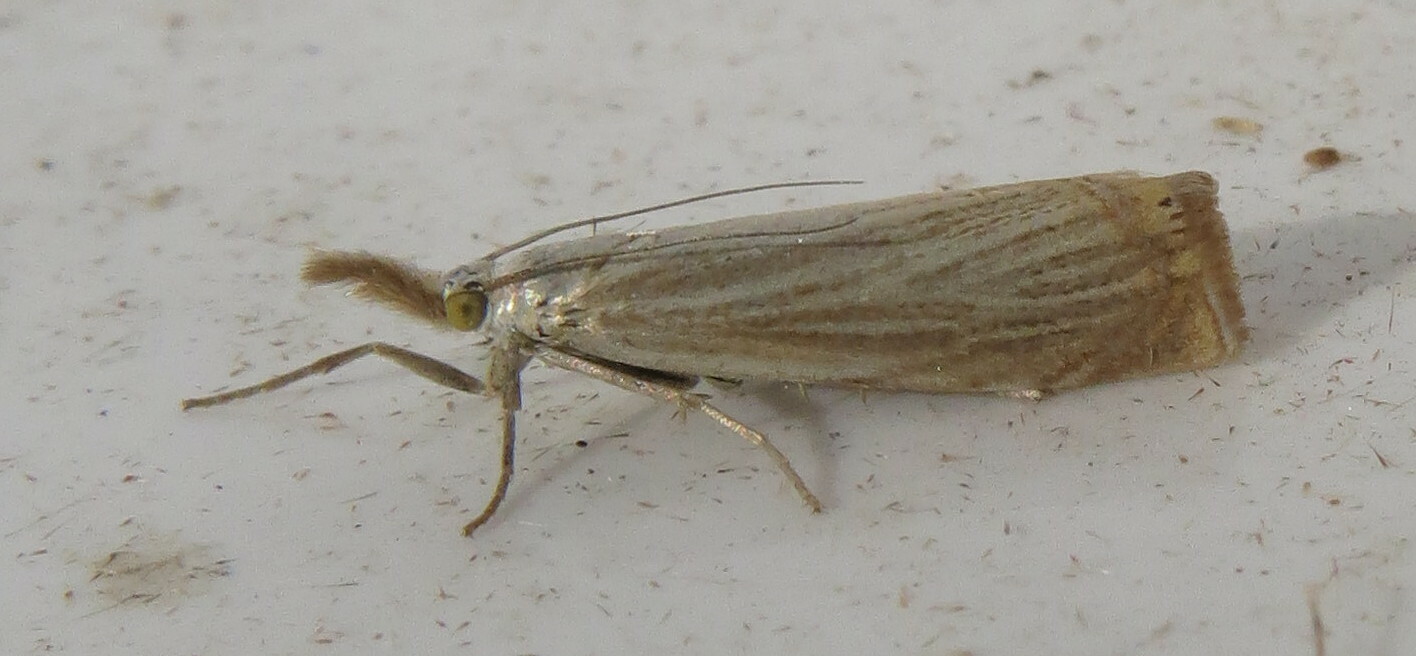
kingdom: Animalia
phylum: Arthropoda
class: Insecta
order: Lepidoptera
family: Crambidae
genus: Chrysoteuchia
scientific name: Chrysoteuchia culmella
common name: Garden grass-veneer
